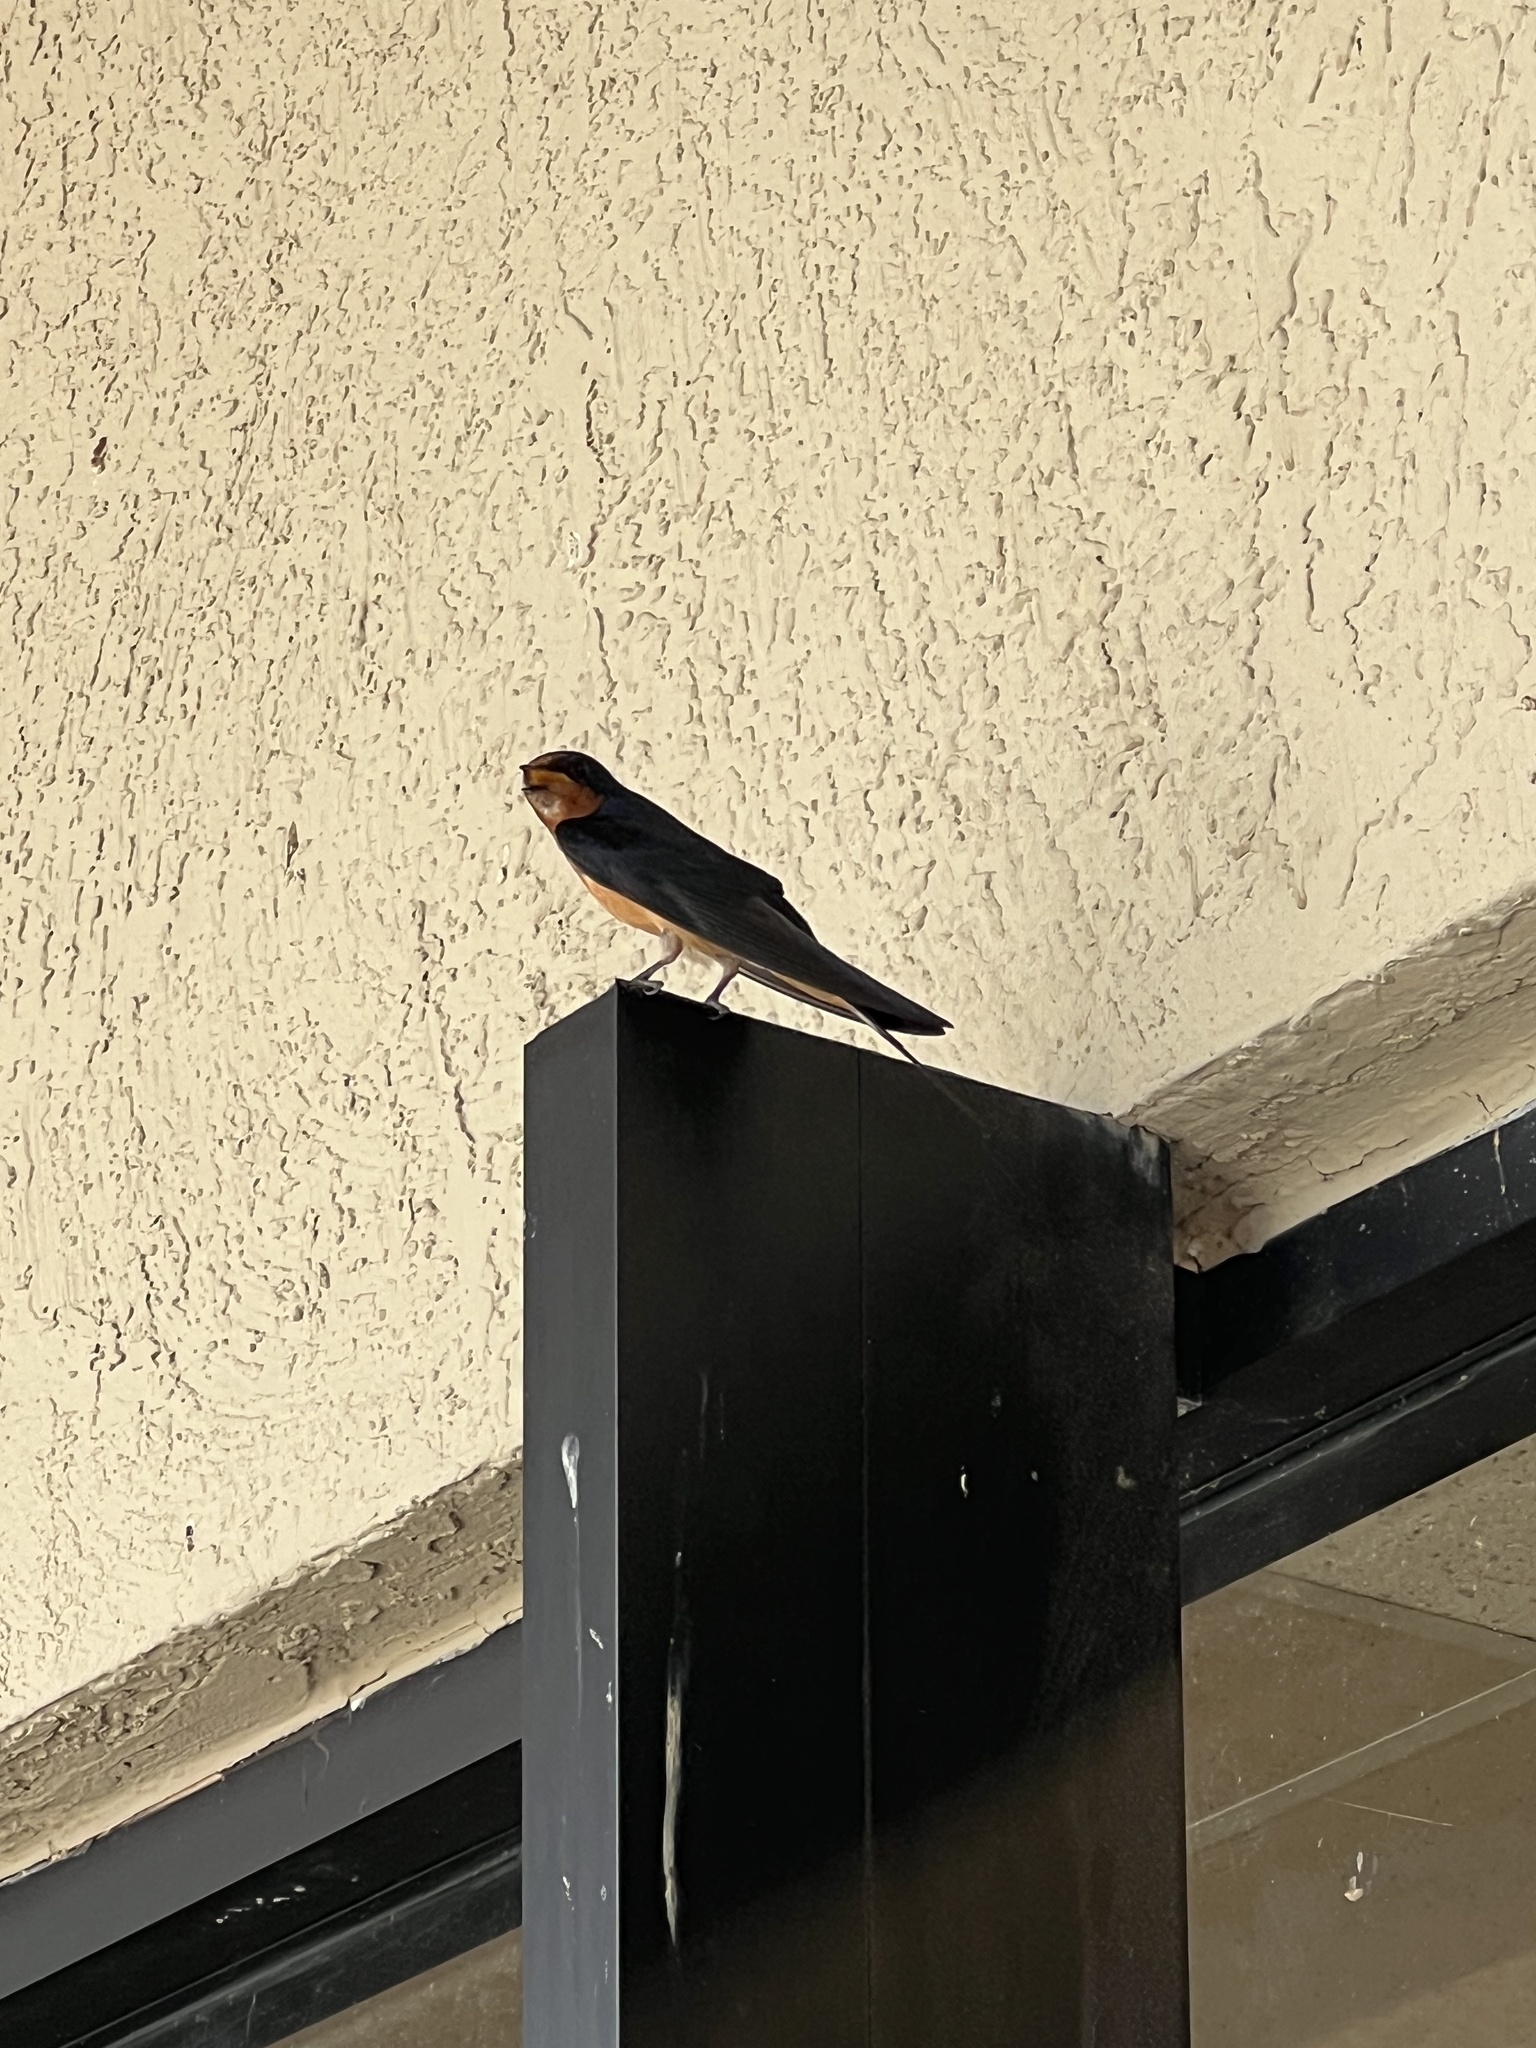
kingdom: Animalia
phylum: Chordata
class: Aves
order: Passeriformes
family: Hirundinidae
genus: Hirundo
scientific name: Hirundo rustica
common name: Barn swallow
